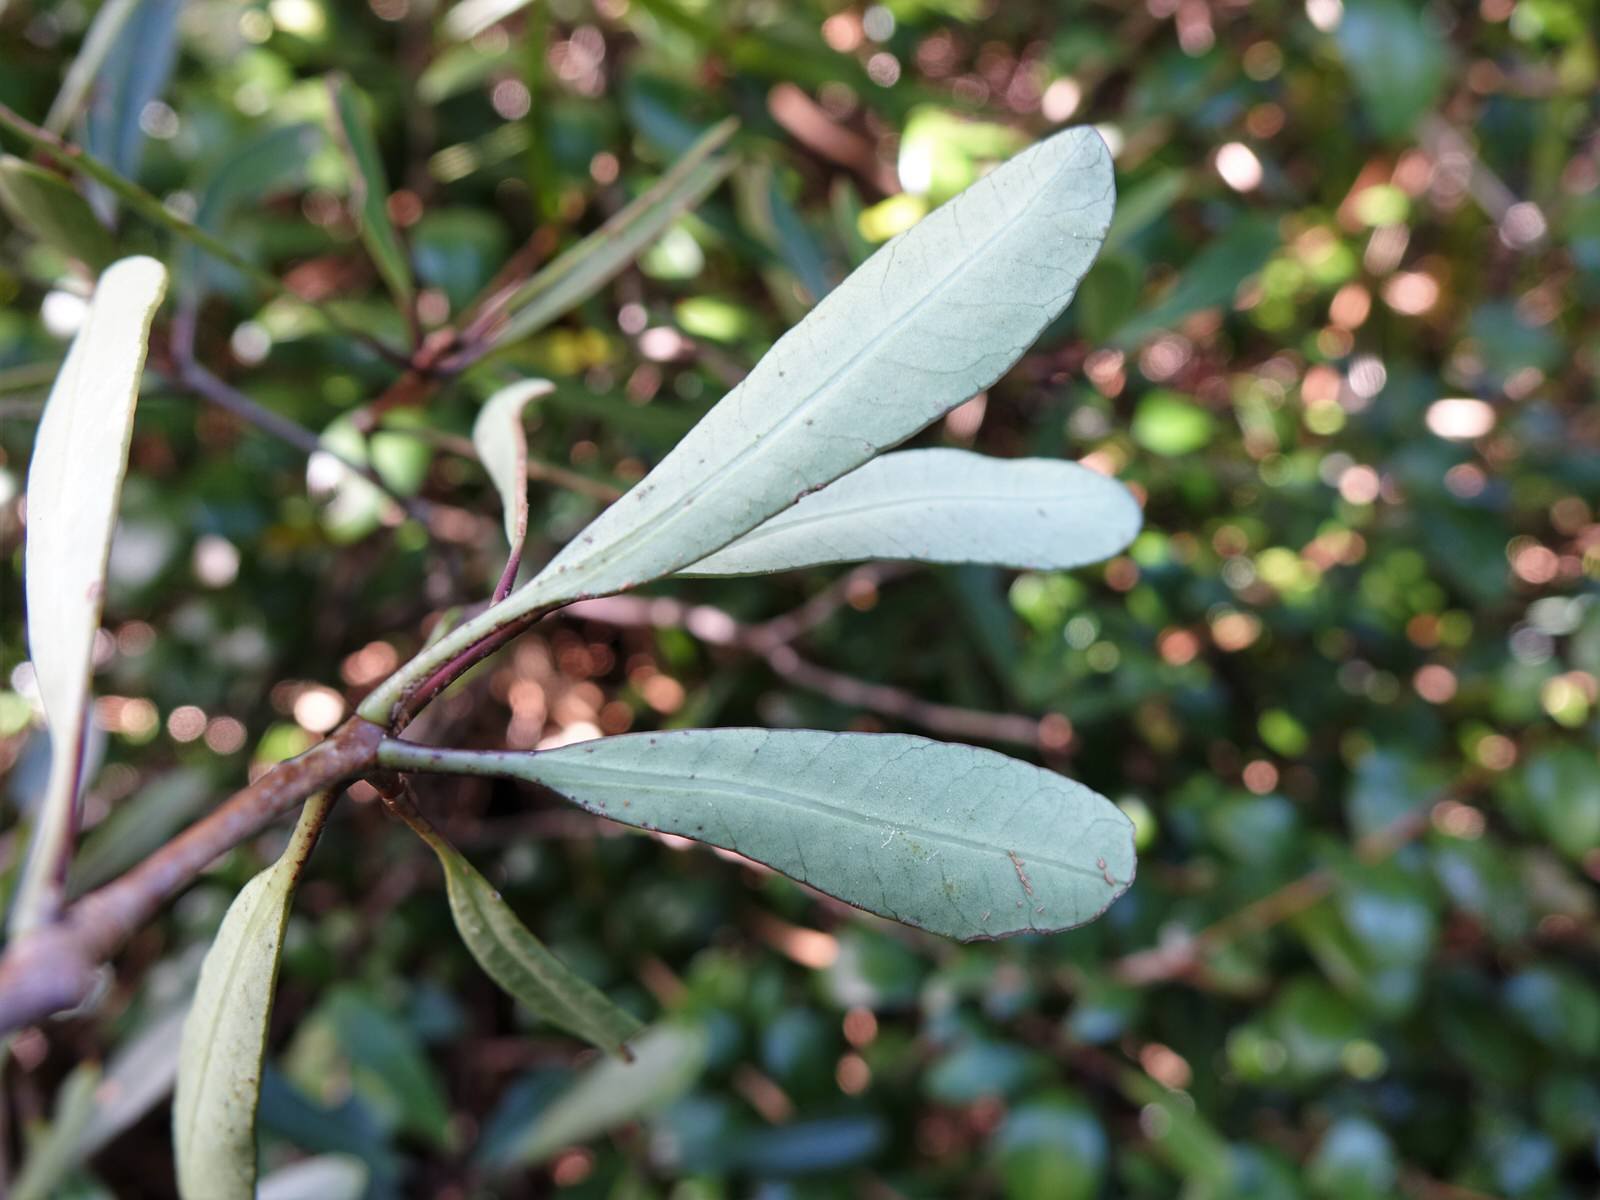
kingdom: Plantae
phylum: Tracheophyta
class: Magnoliopsida
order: Apiales
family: Pittosporaceae
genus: Pittosporum
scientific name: Pittosporum kirkii
